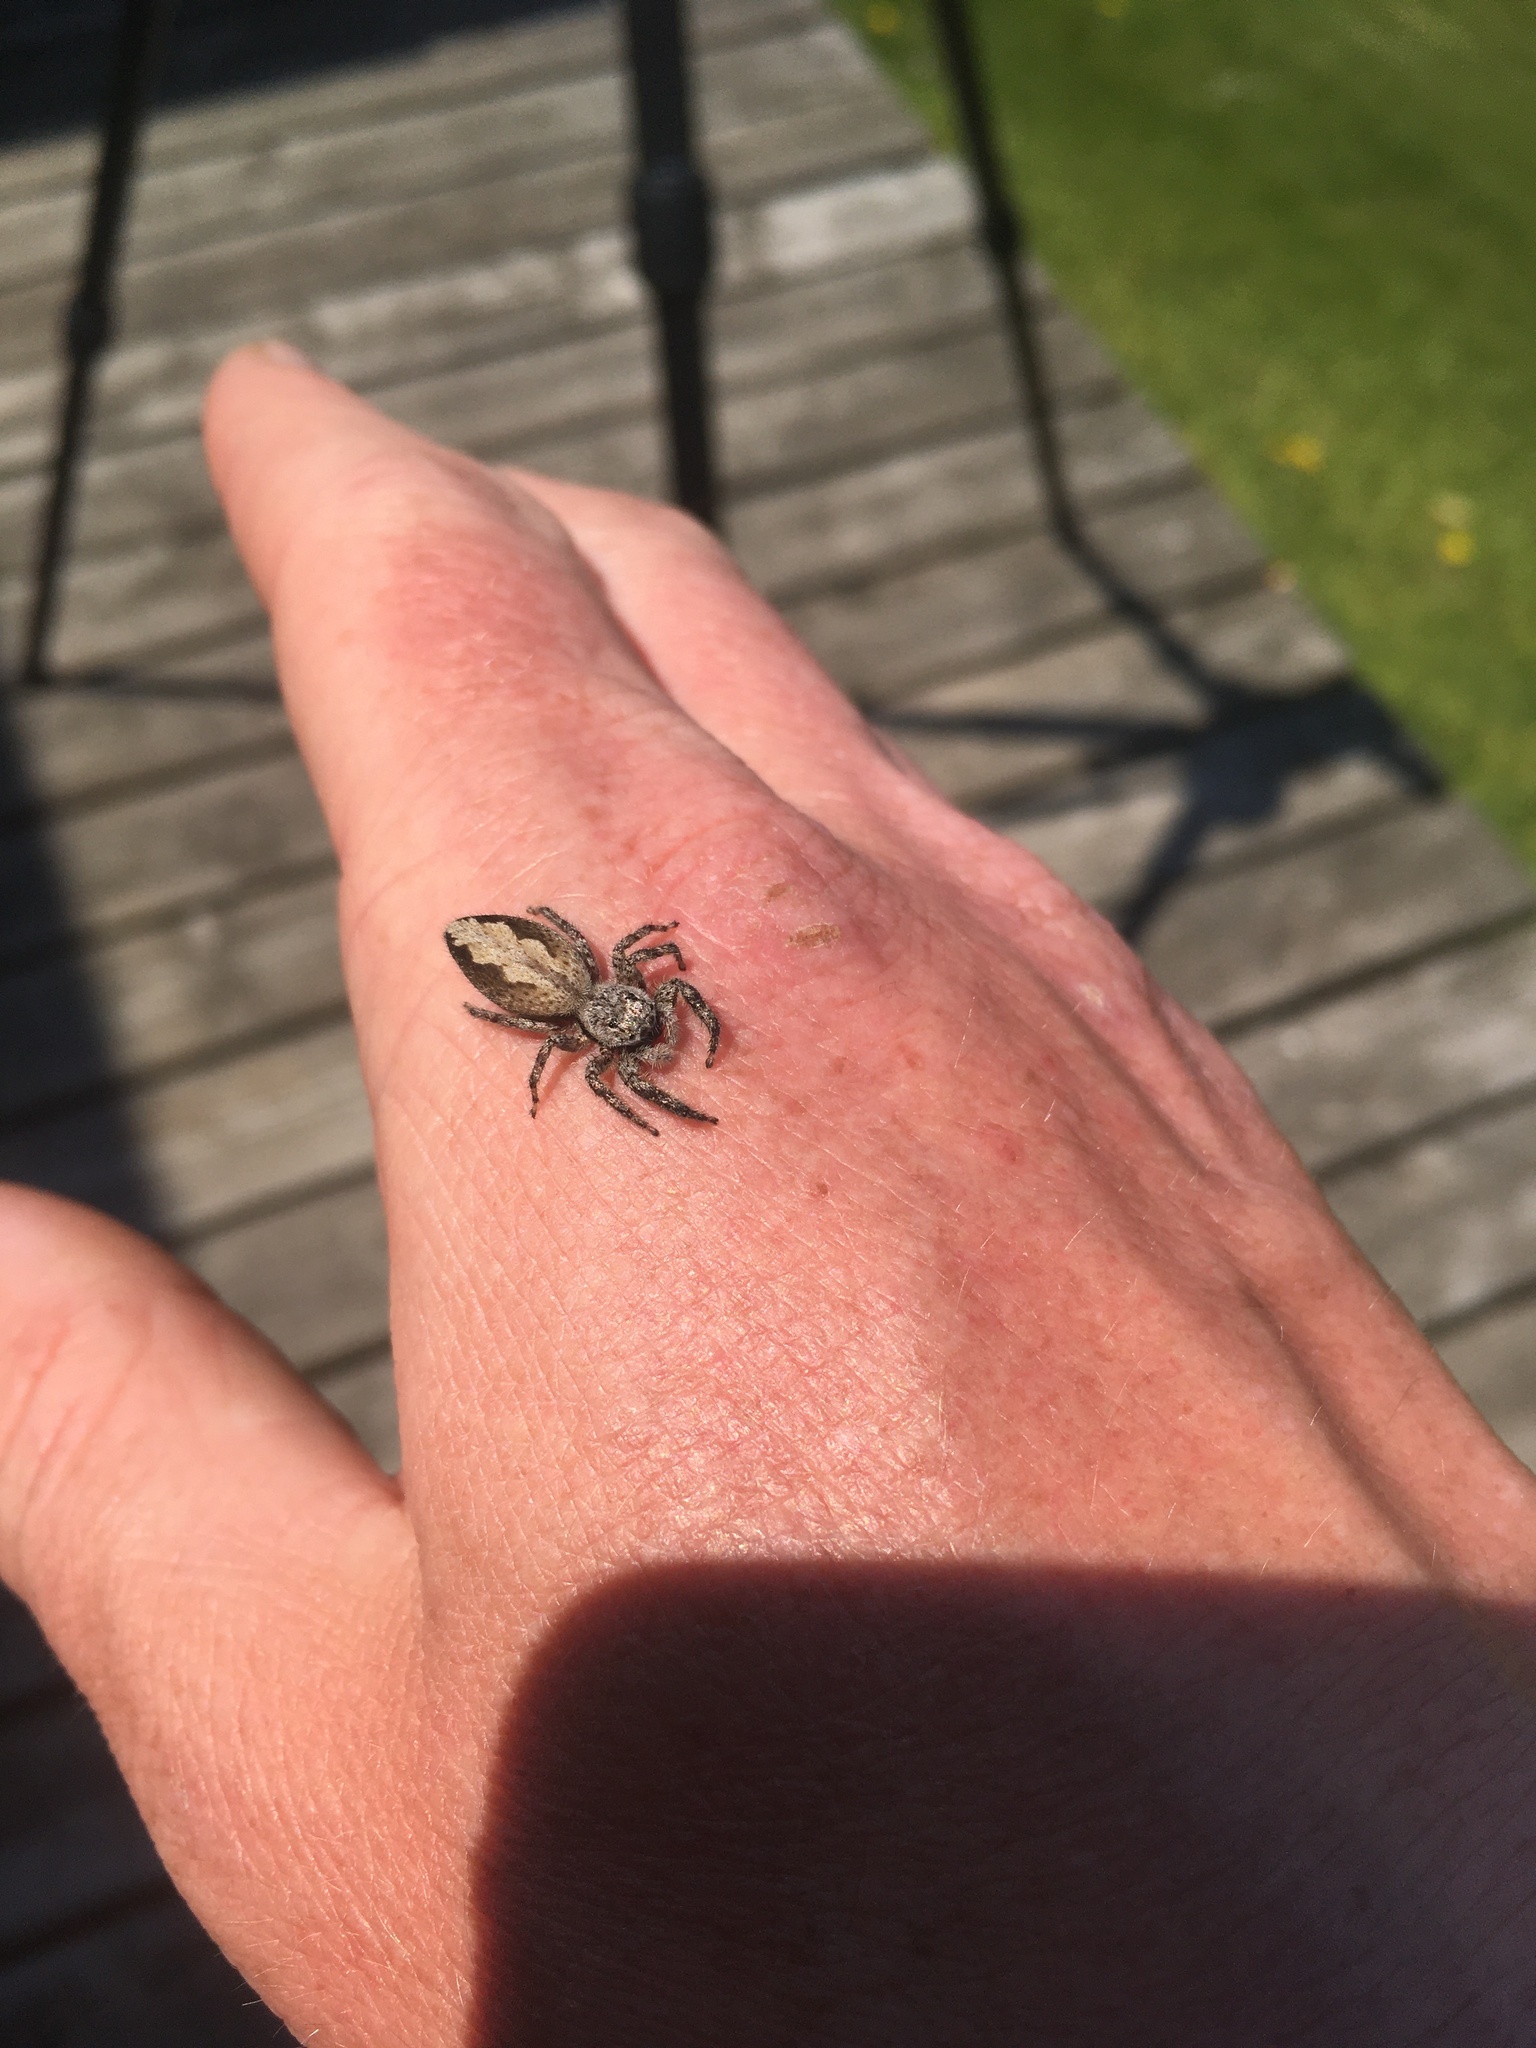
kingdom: Animalia
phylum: Arthropoda
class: Arachnida
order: Araneae
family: Salticidae
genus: Platycryptus
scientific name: Platycryptus undatus
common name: Tan jumping spider
